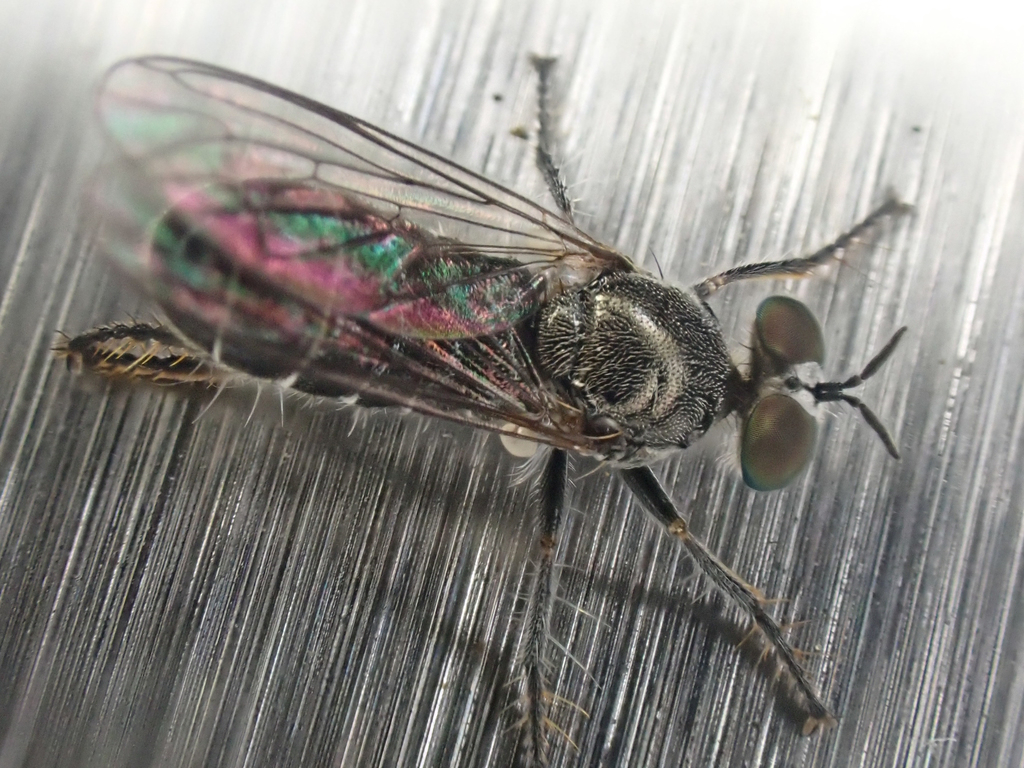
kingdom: Animalia
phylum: Arthropoda
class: Insecta
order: Diptera
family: Asilidae
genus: Atomosia
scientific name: Atomosia puella
